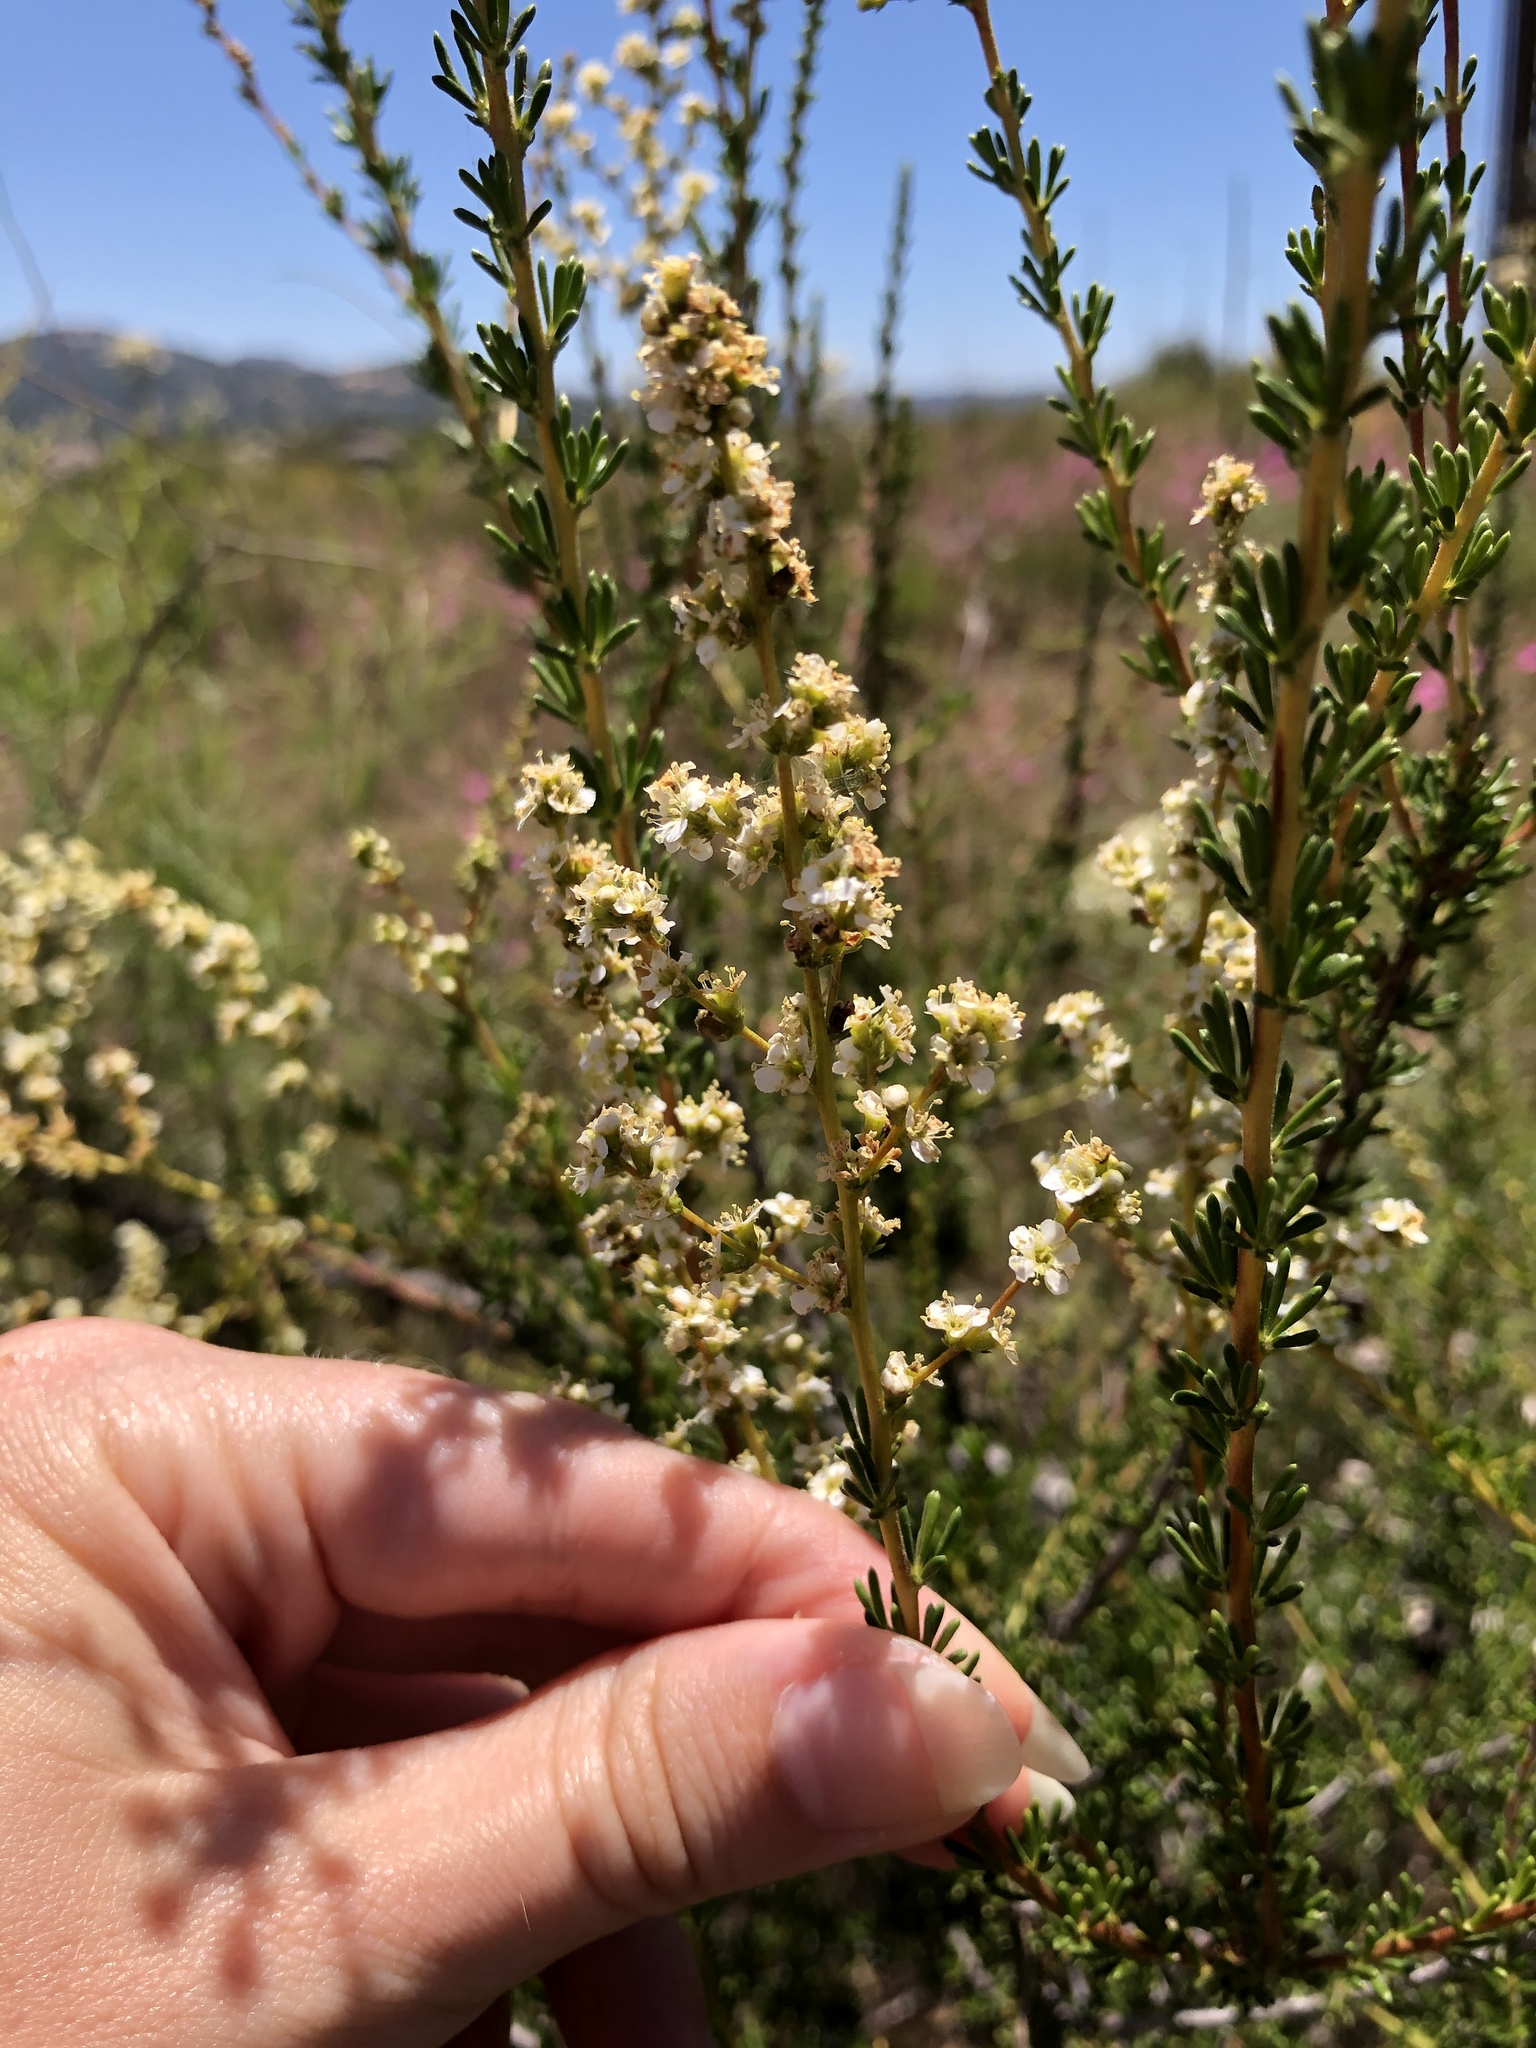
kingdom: Plantae
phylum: Tracheophyta
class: Magnoliopsida
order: Rosales
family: Rosaceae
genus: Adenostoma
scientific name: Adenostoma fasciculatum
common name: Chamise
